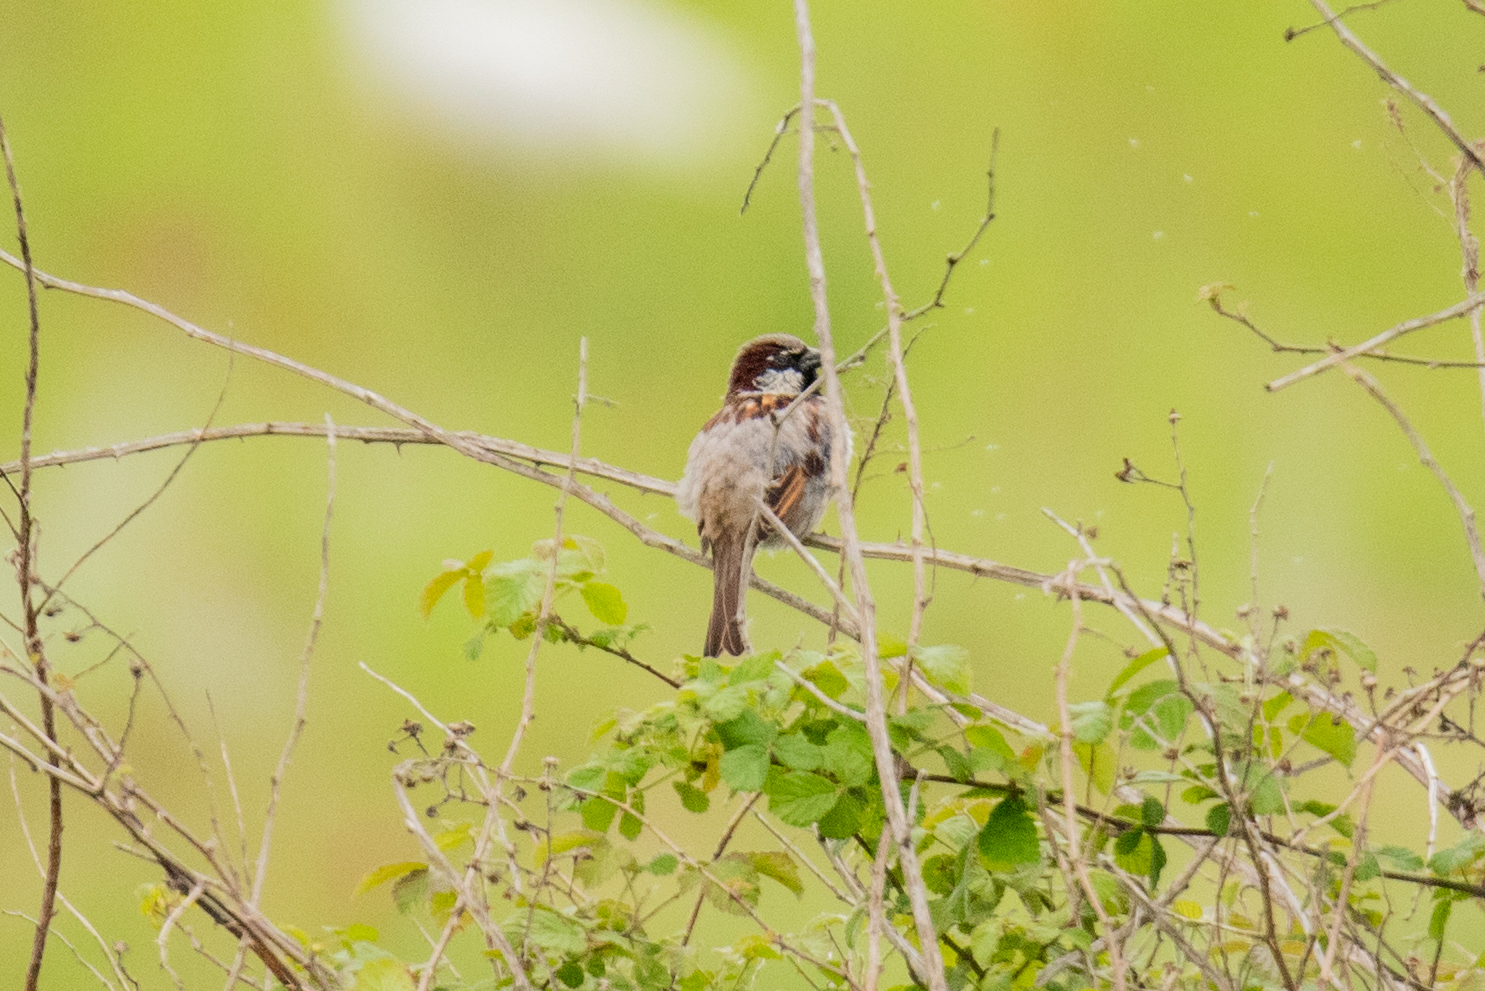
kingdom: Animalia
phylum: Chordata
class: Aves
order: Passeriformes
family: Passeridae
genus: Passer
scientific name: Passer domesticus
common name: House sparrow
